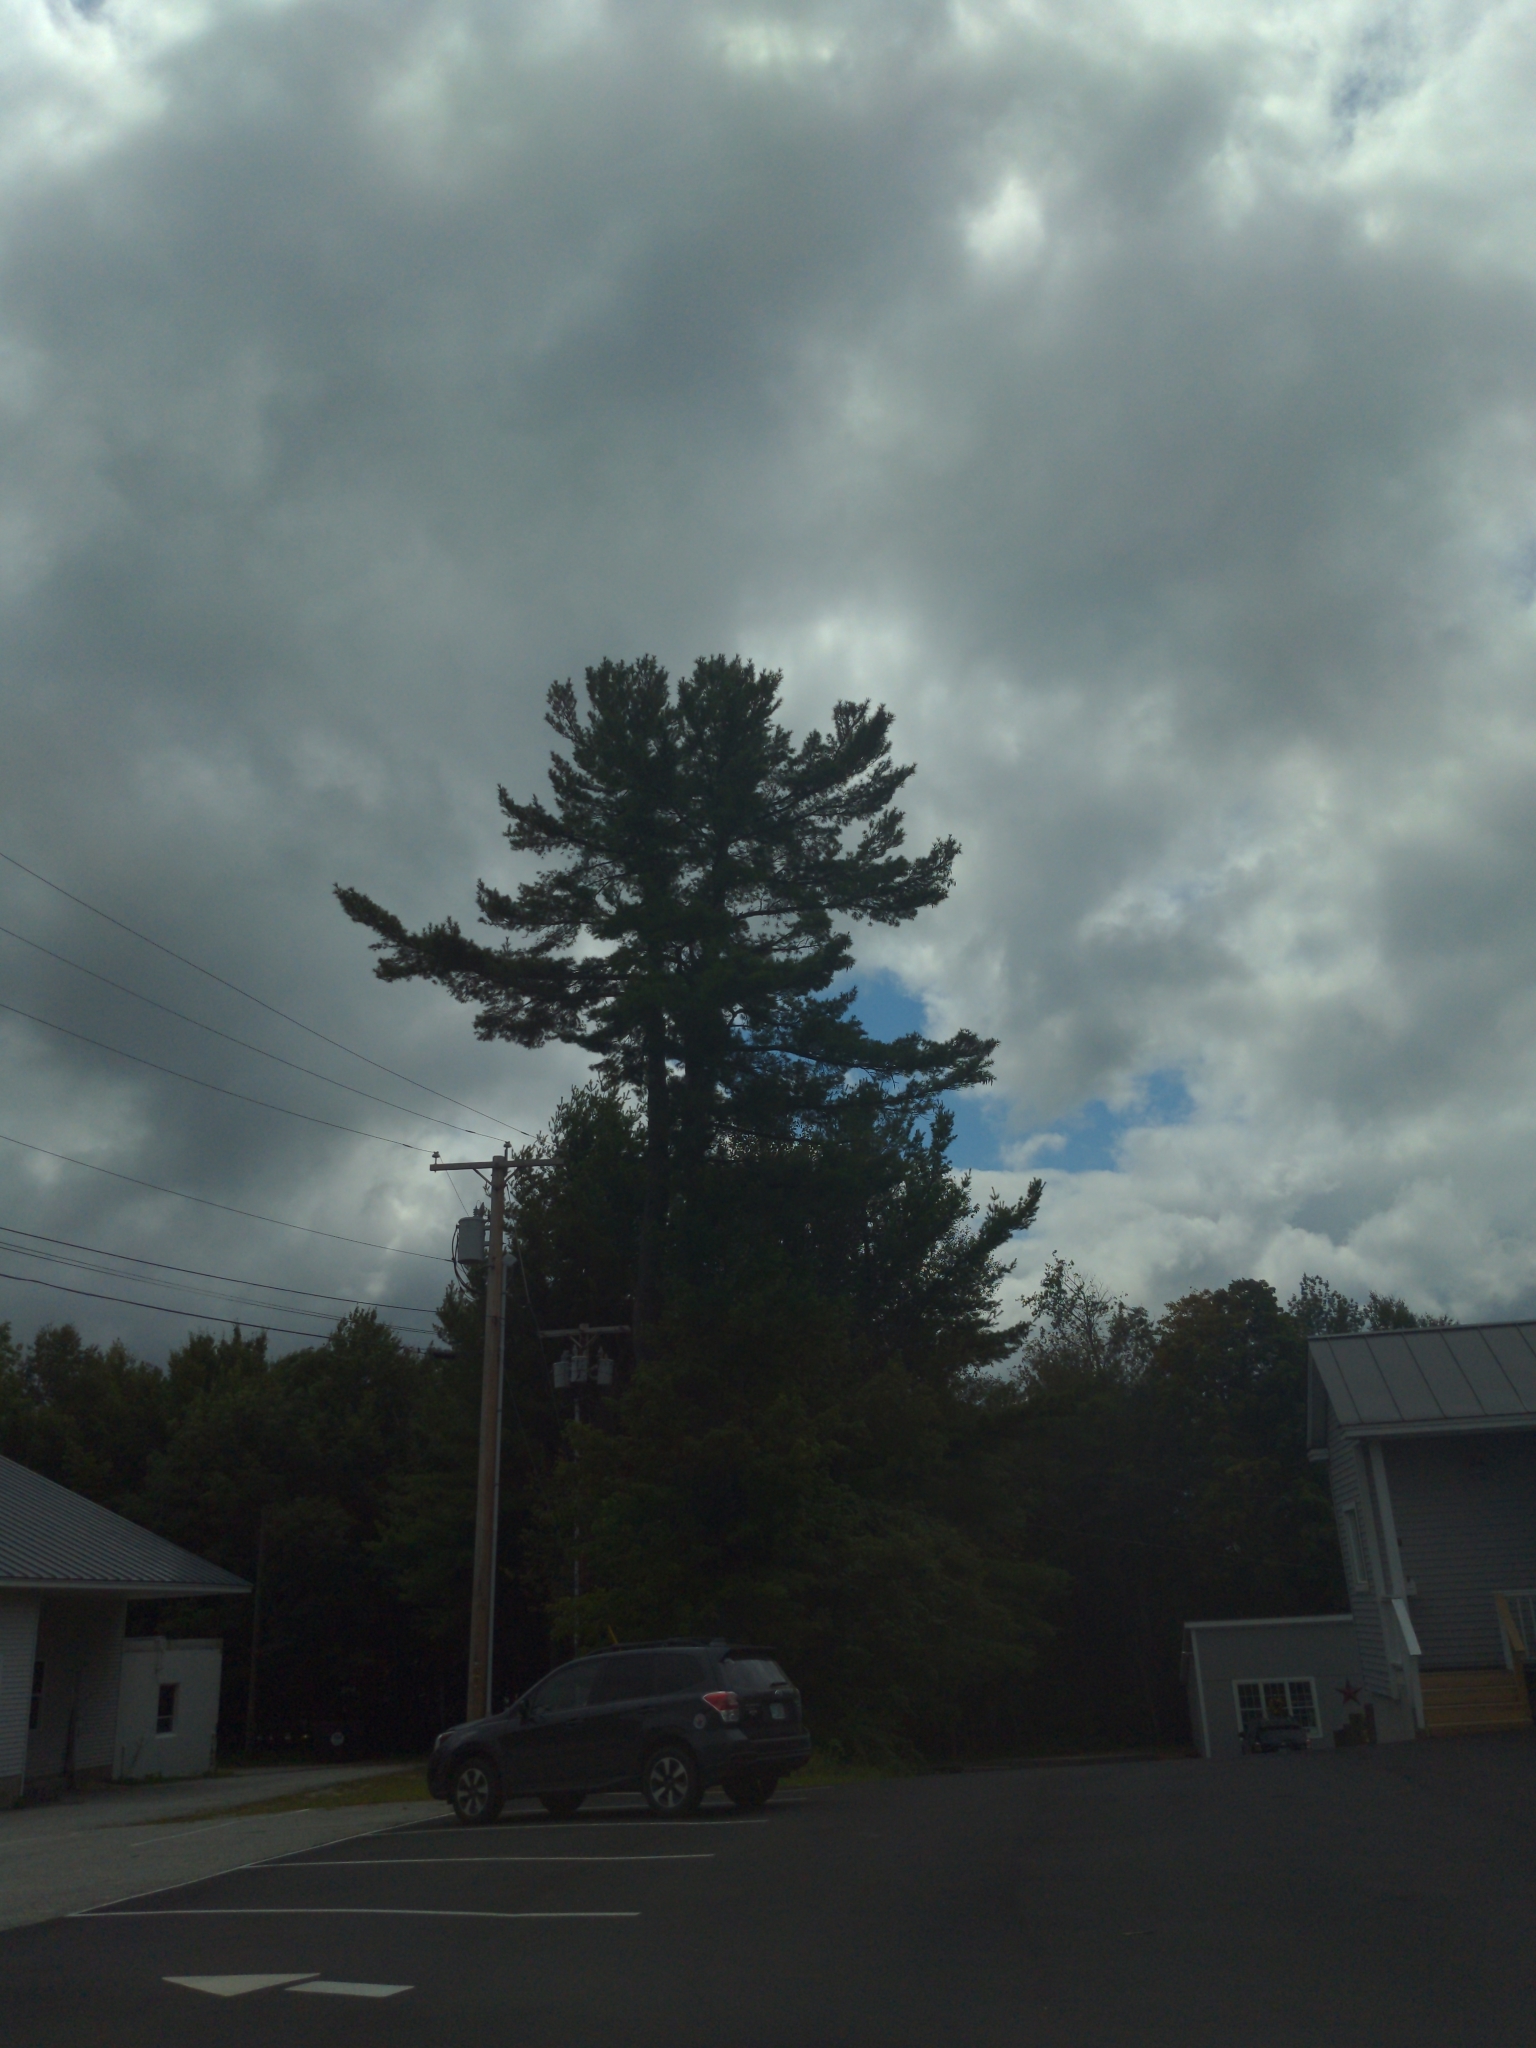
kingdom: Plantae
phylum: Tracheophyta
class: Pinopsida
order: Pinales
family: Pinaceae
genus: Pinus
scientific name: Pinus strobus
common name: Weymouth pine
